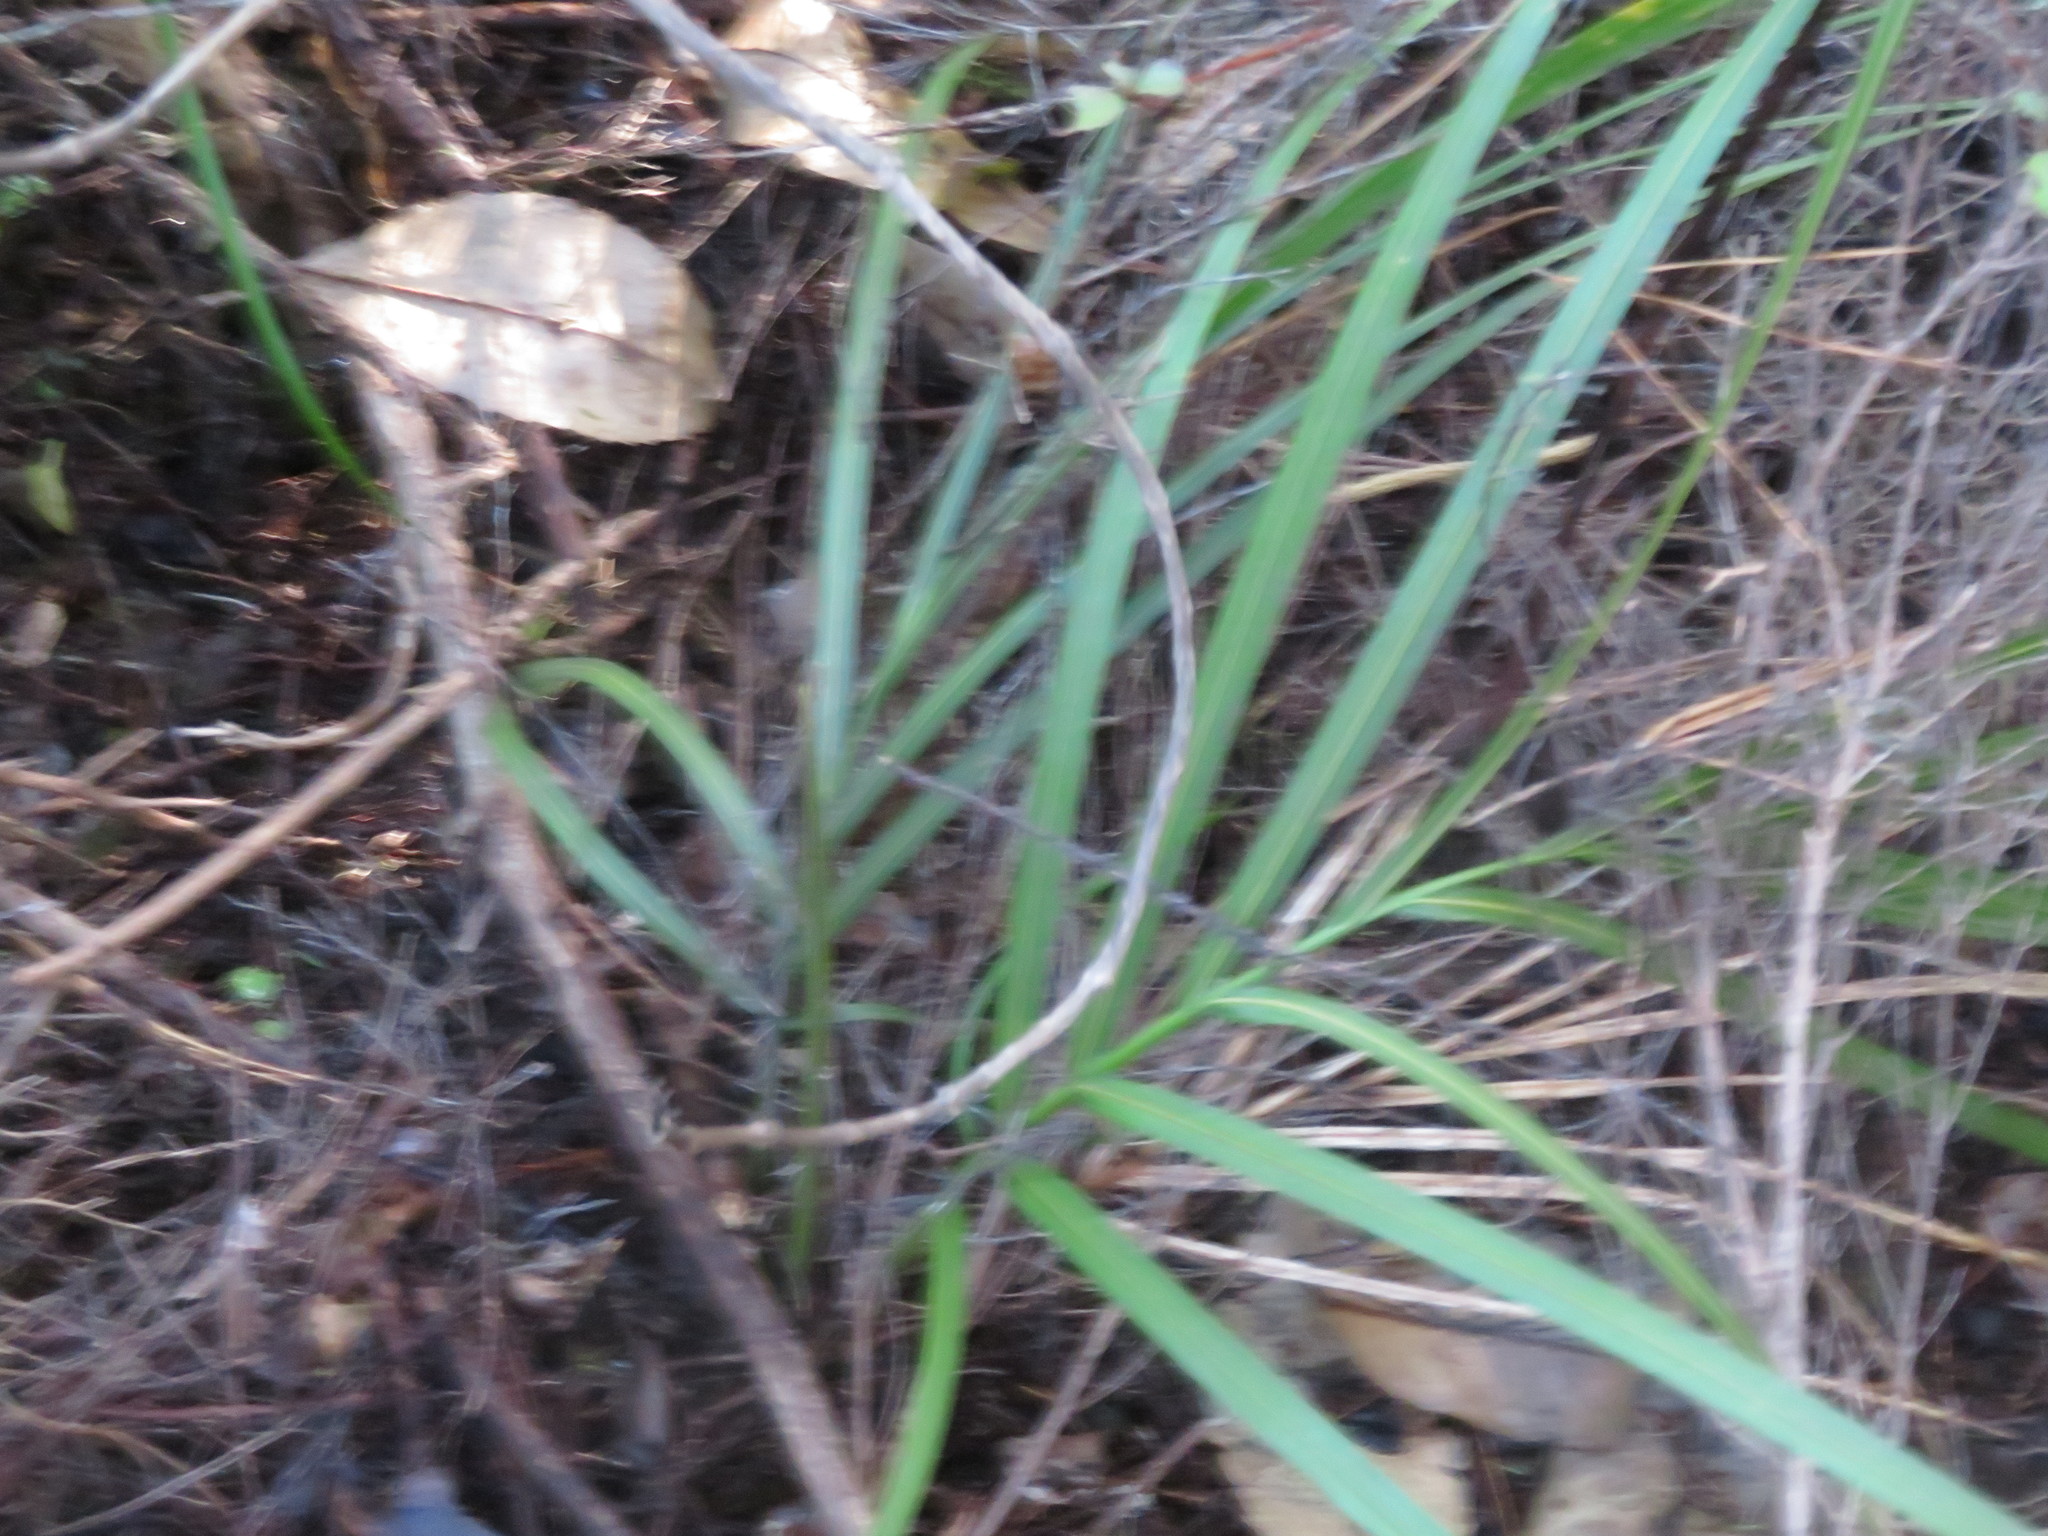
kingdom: Plantae
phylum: Tracheophyta
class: Liliopsida
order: Arecales
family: Arecaceae
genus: Rhopalostylis
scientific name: Rhopalostylis sapida
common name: Feather-duster palm
